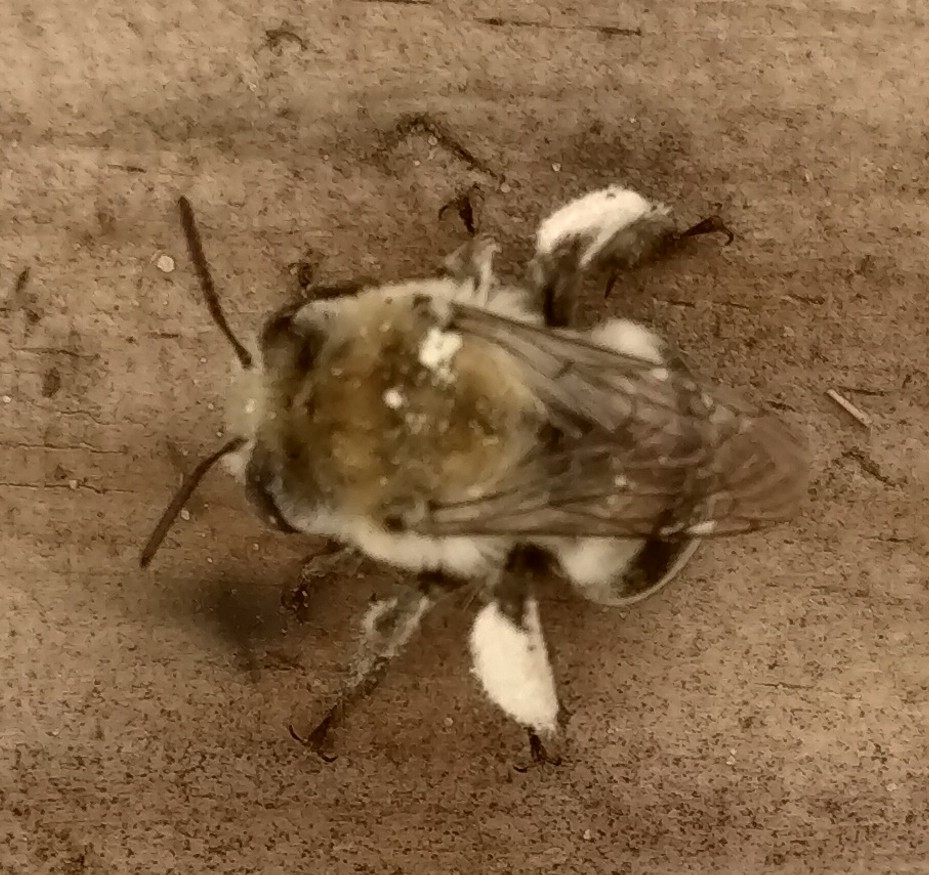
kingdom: Animalia
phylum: Arthropoda
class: Insecta
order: Hymenoptera
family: Apidae
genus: Anthophora
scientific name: Anthophora walshii
